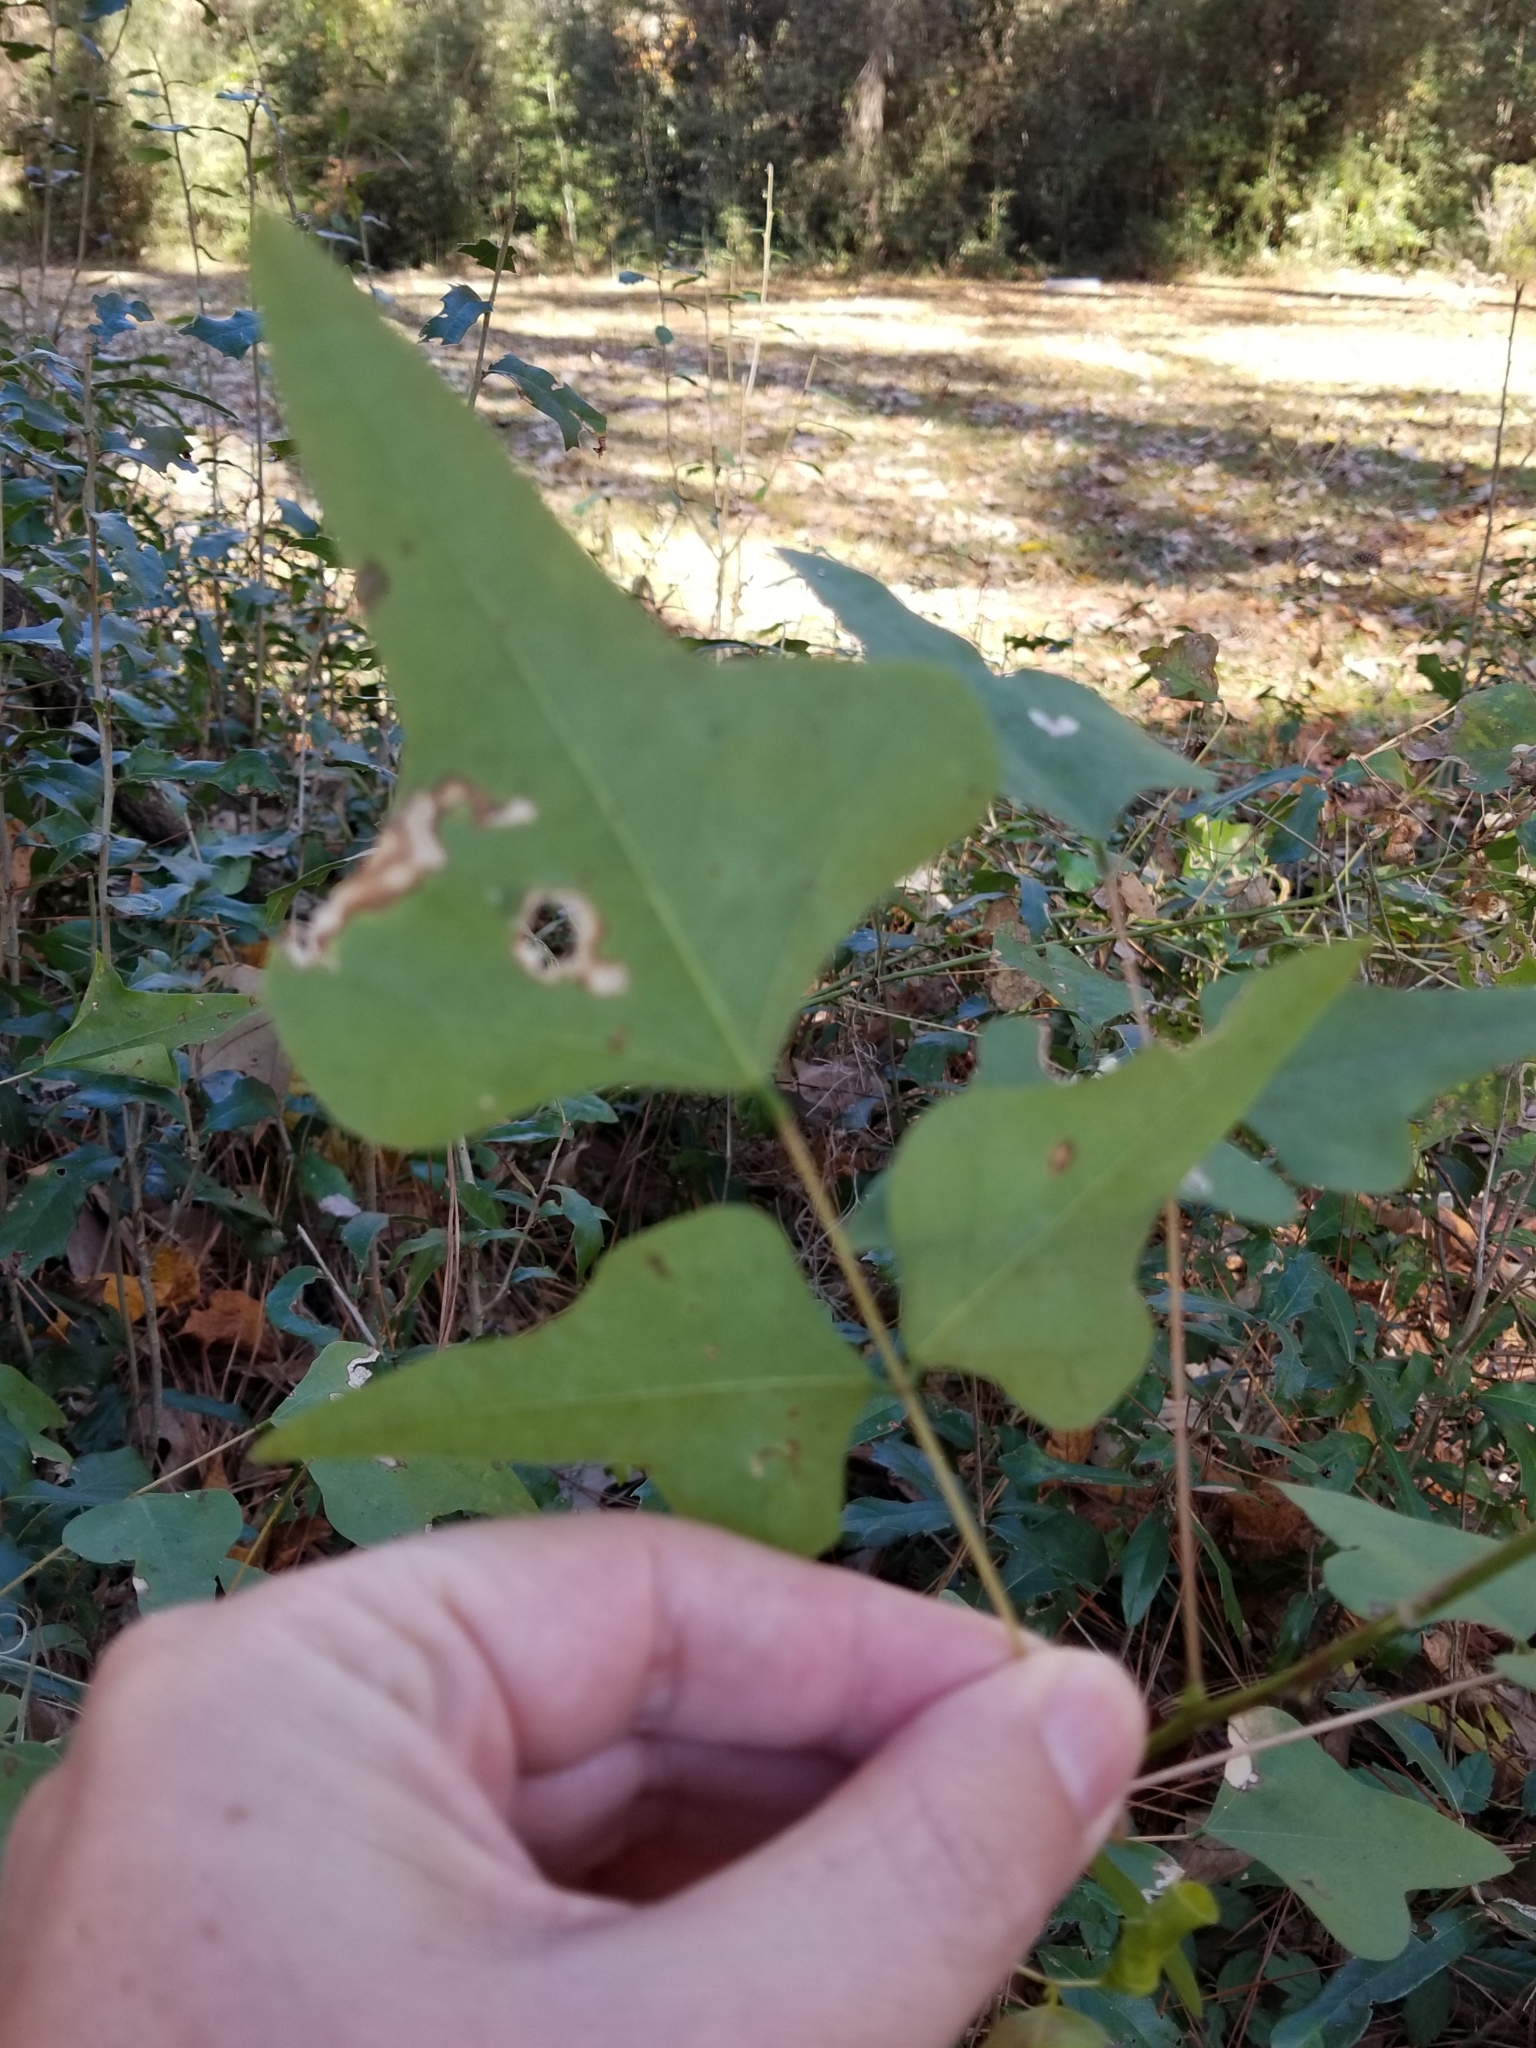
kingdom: Plantae
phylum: Tracheophyta
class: Magnoliopsida
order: Fabales
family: Fabaceae
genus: Erythrina
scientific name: Erythrina herbacea
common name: Coral-bean
